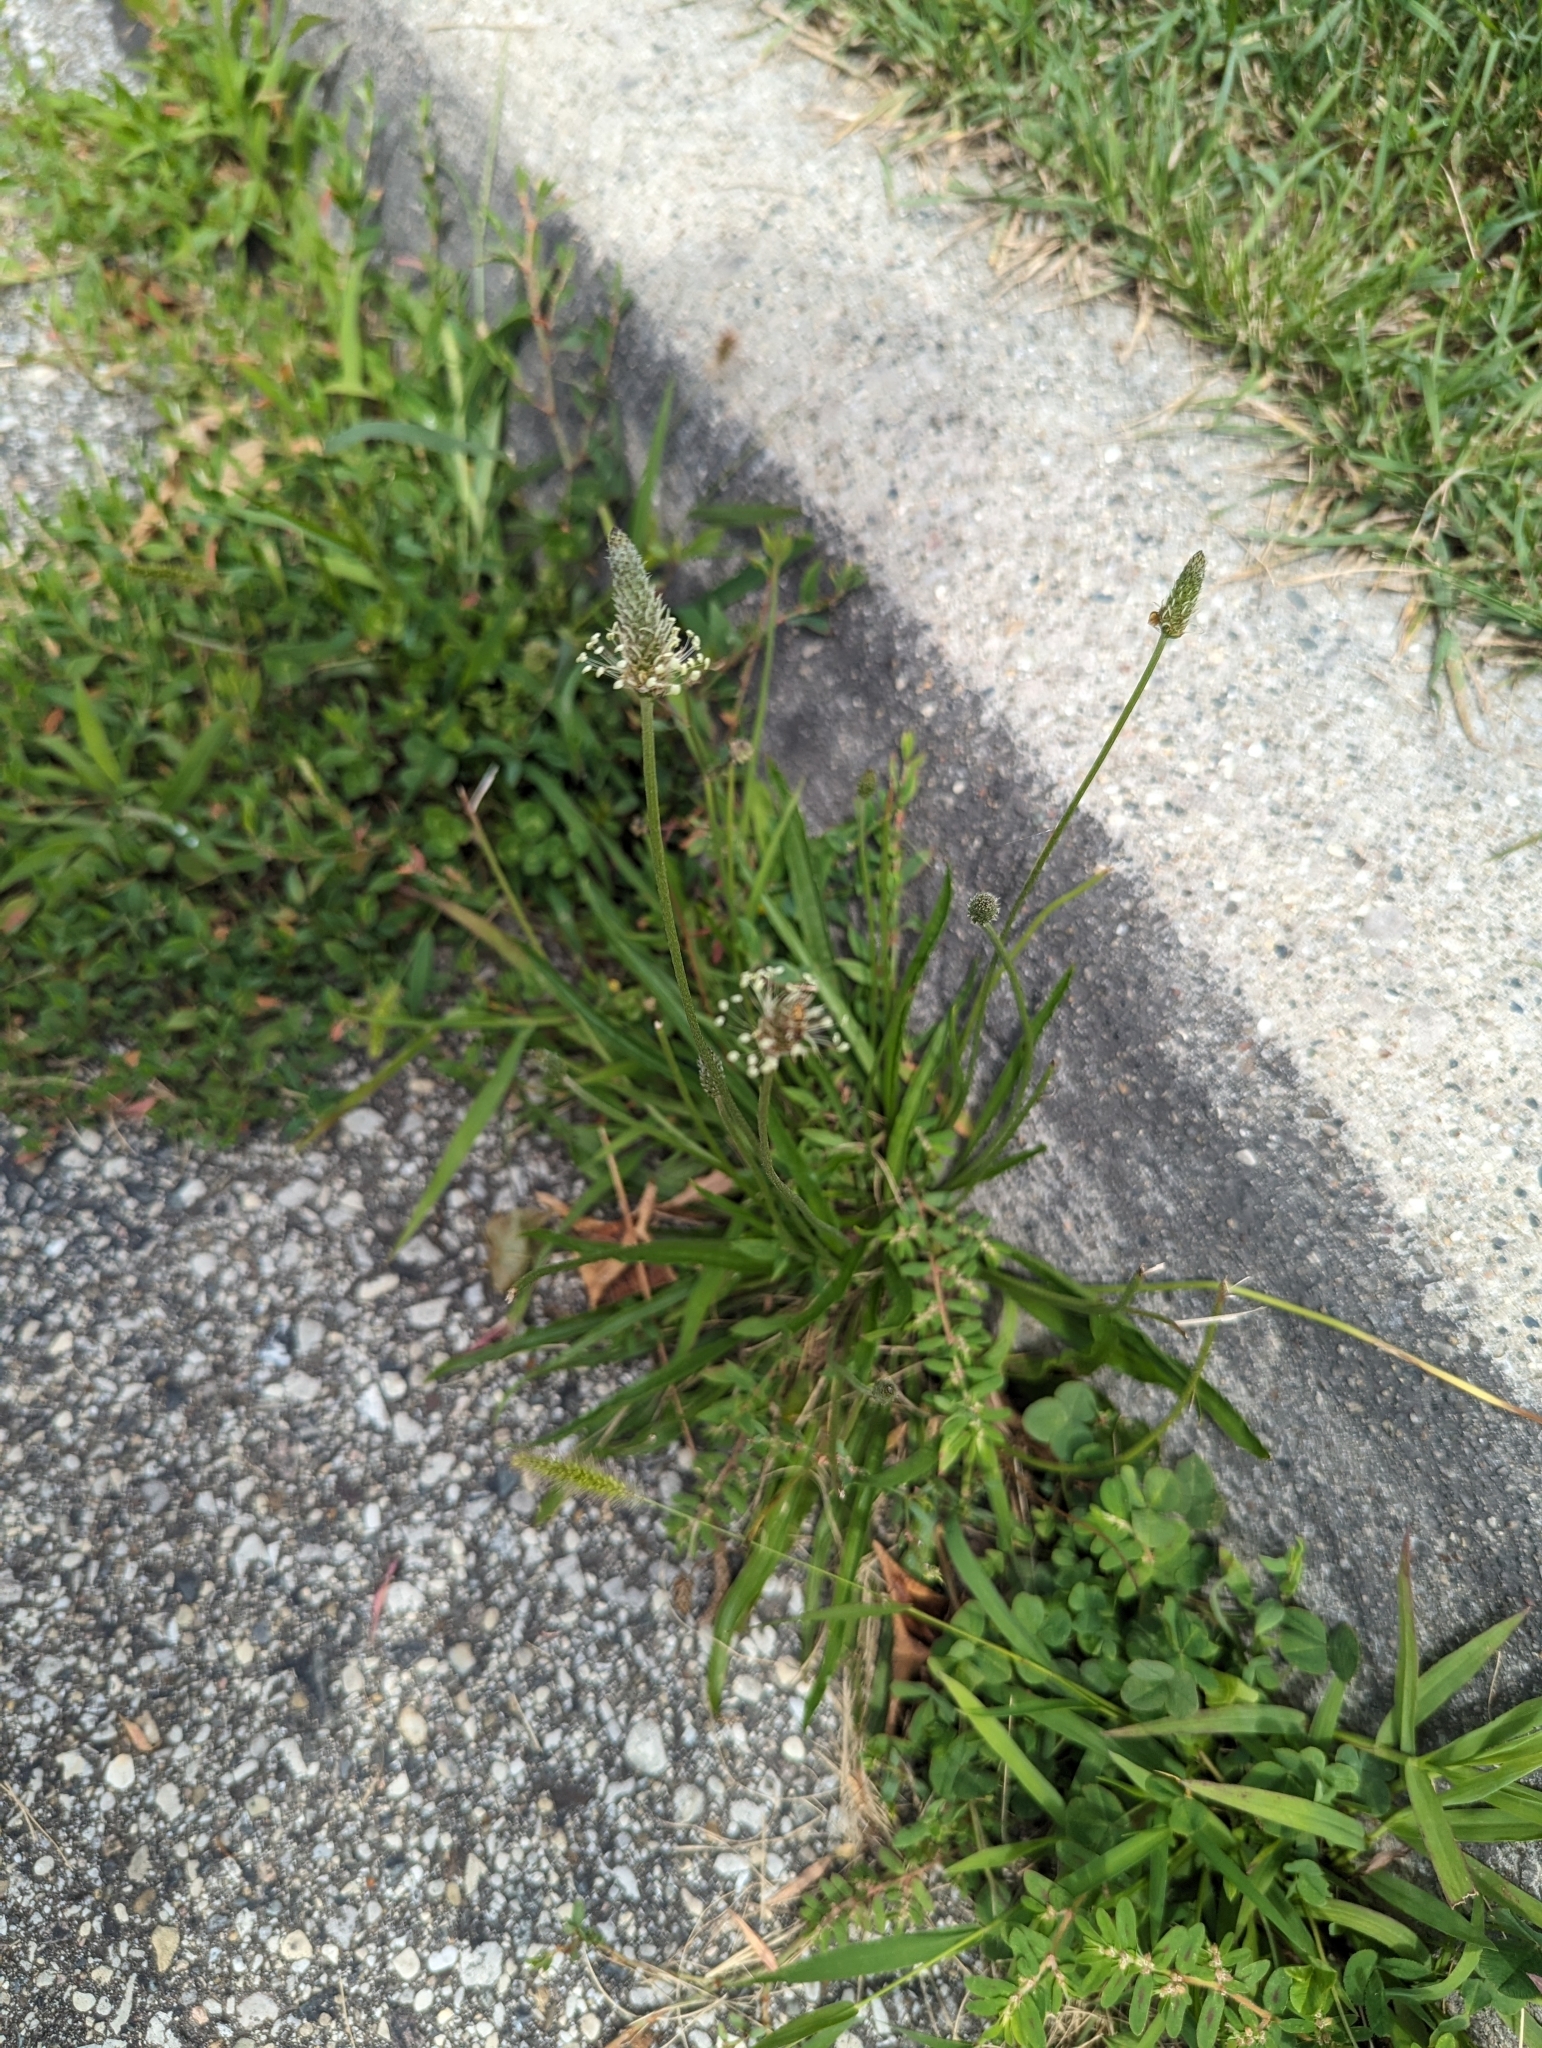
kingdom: Plantae
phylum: Tracheophyta
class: Magnoliopsida
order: Lamiales
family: Plantaginaceae
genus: Plantago
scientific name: Plantago lanceolata
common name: Ribwort plantain
